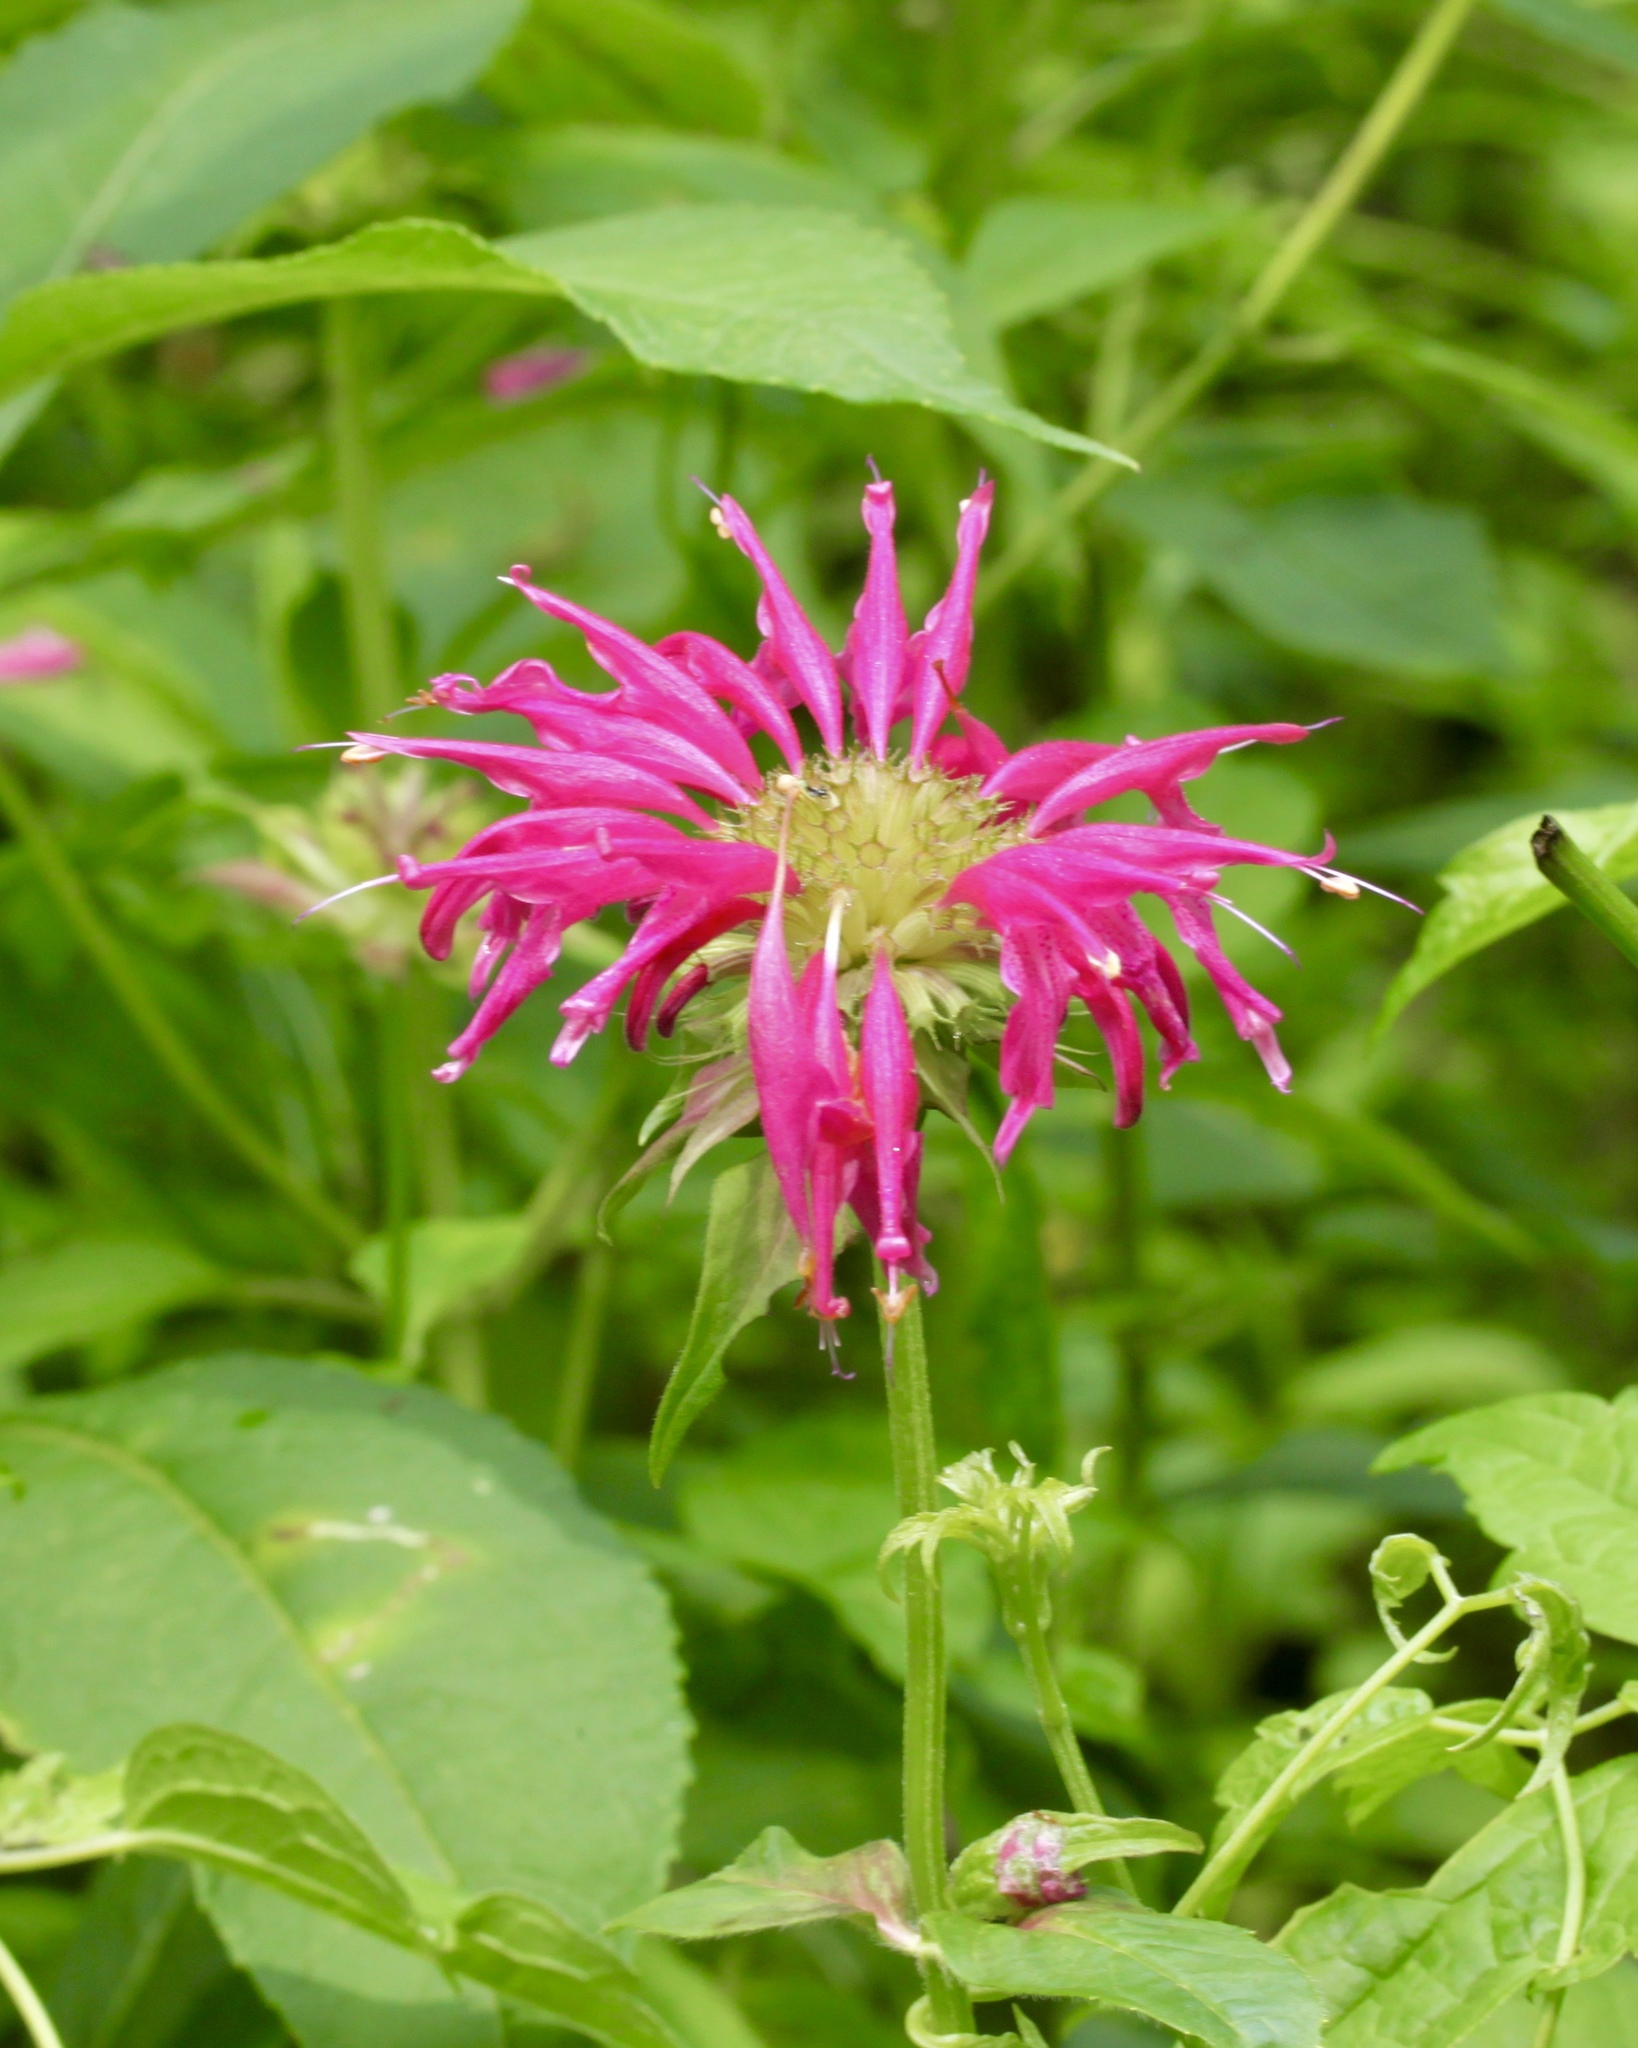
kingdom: Plantae
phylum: Tracheophyta
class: Magnoliopsida
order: Lamiales
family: Lamiaceae
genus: Monarda
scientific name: Monarda didyma
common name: Beebalm
